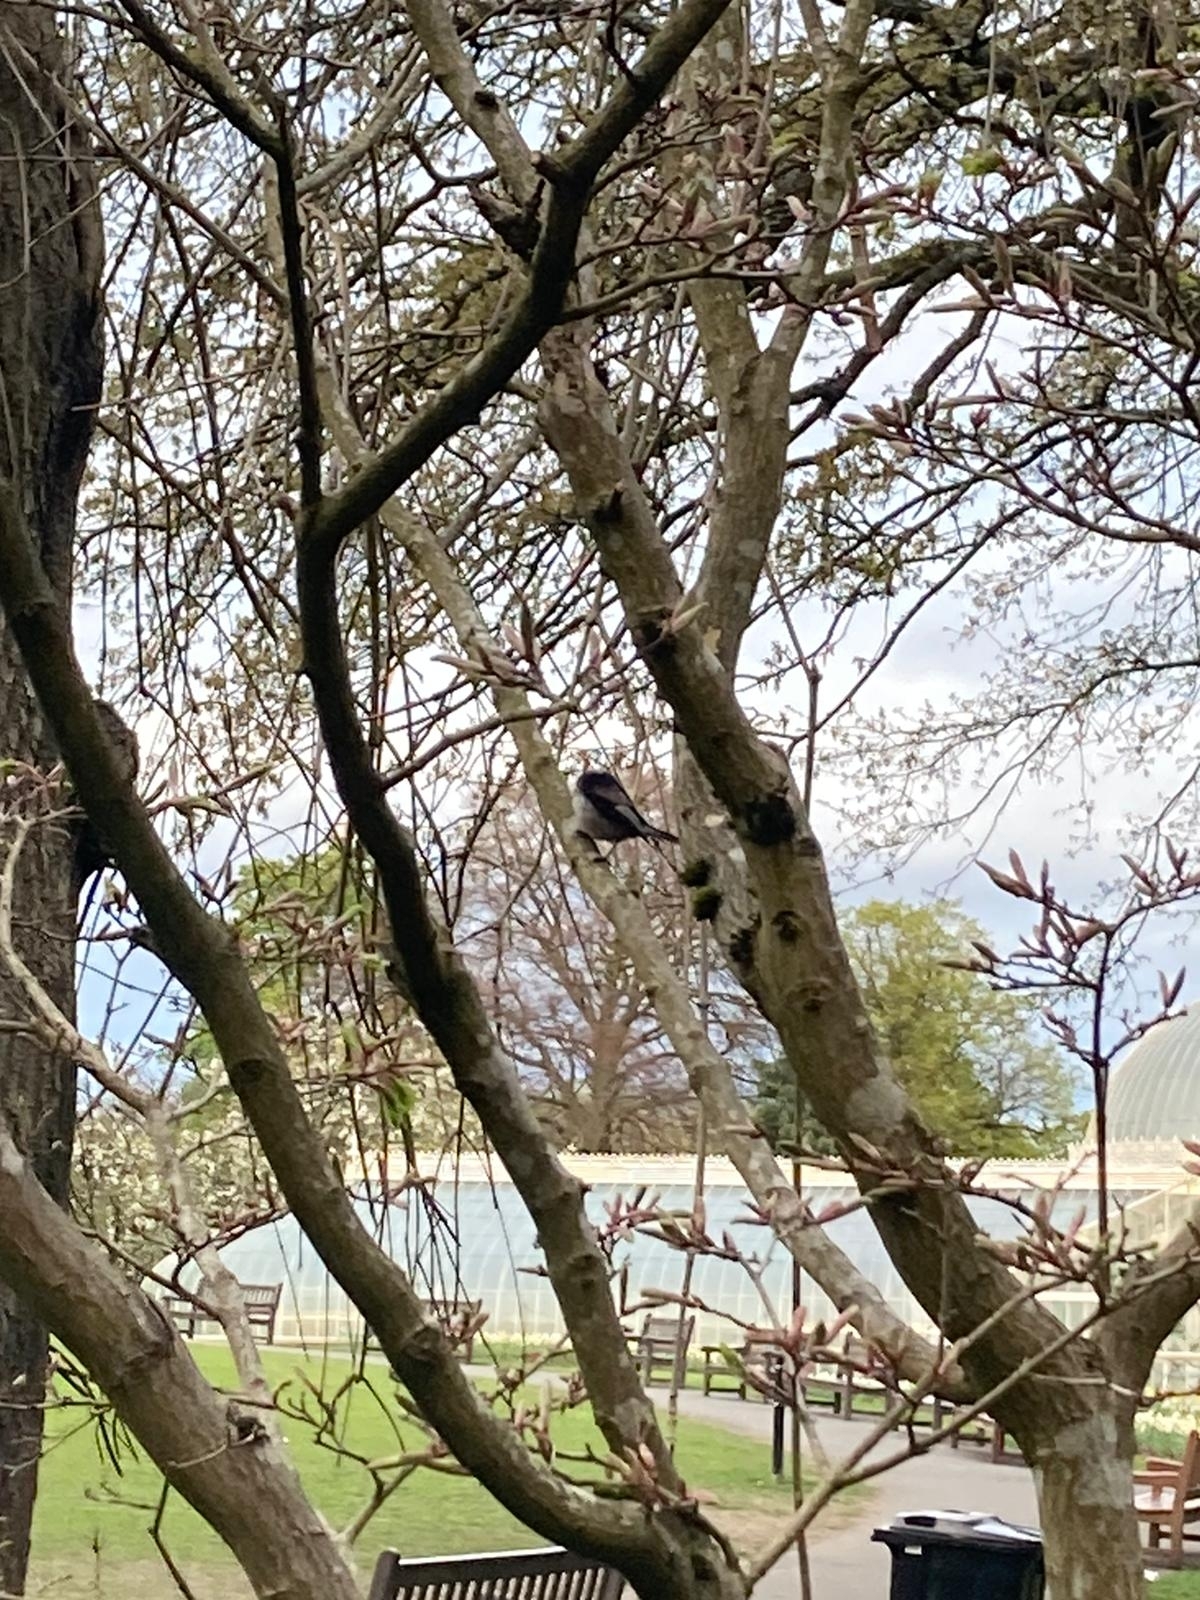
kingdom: Animalia
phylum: Chordata
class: Aves
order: Passeriformes
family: Aegithalidae
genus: Aegithalos
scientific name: Aegithalos caudatus
